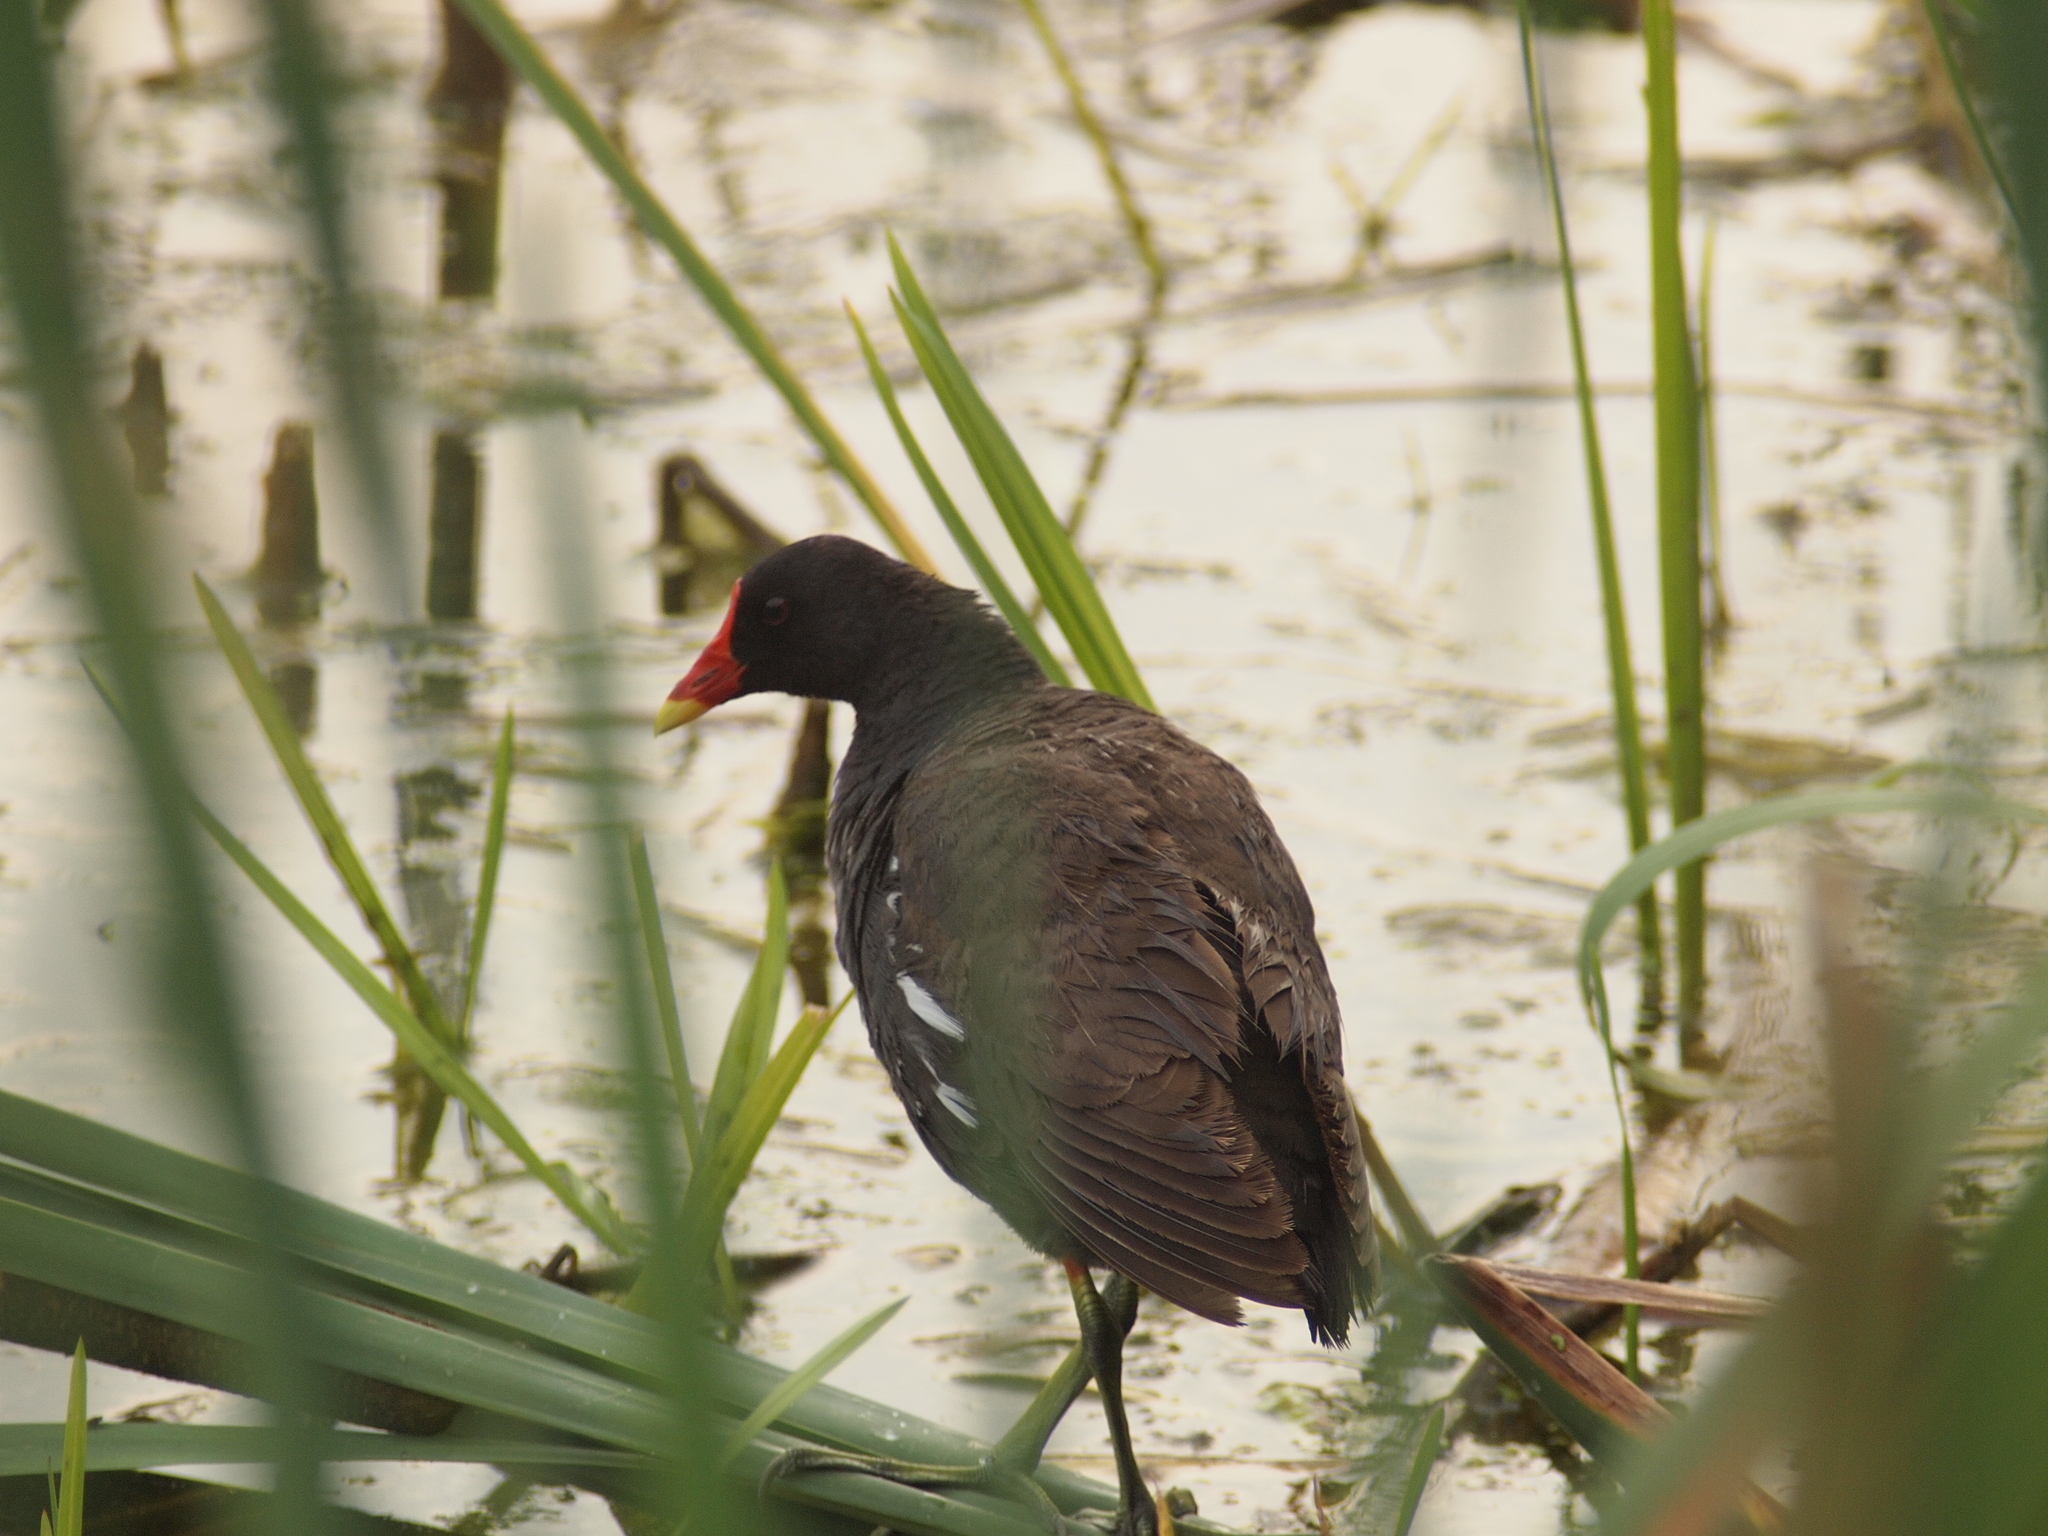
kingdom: Animalia
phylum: Chordata
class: Aves
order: Gruiformes
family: Rallidae
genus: Gallinula
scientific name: Gallinula chloropus
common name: Common moorhen
